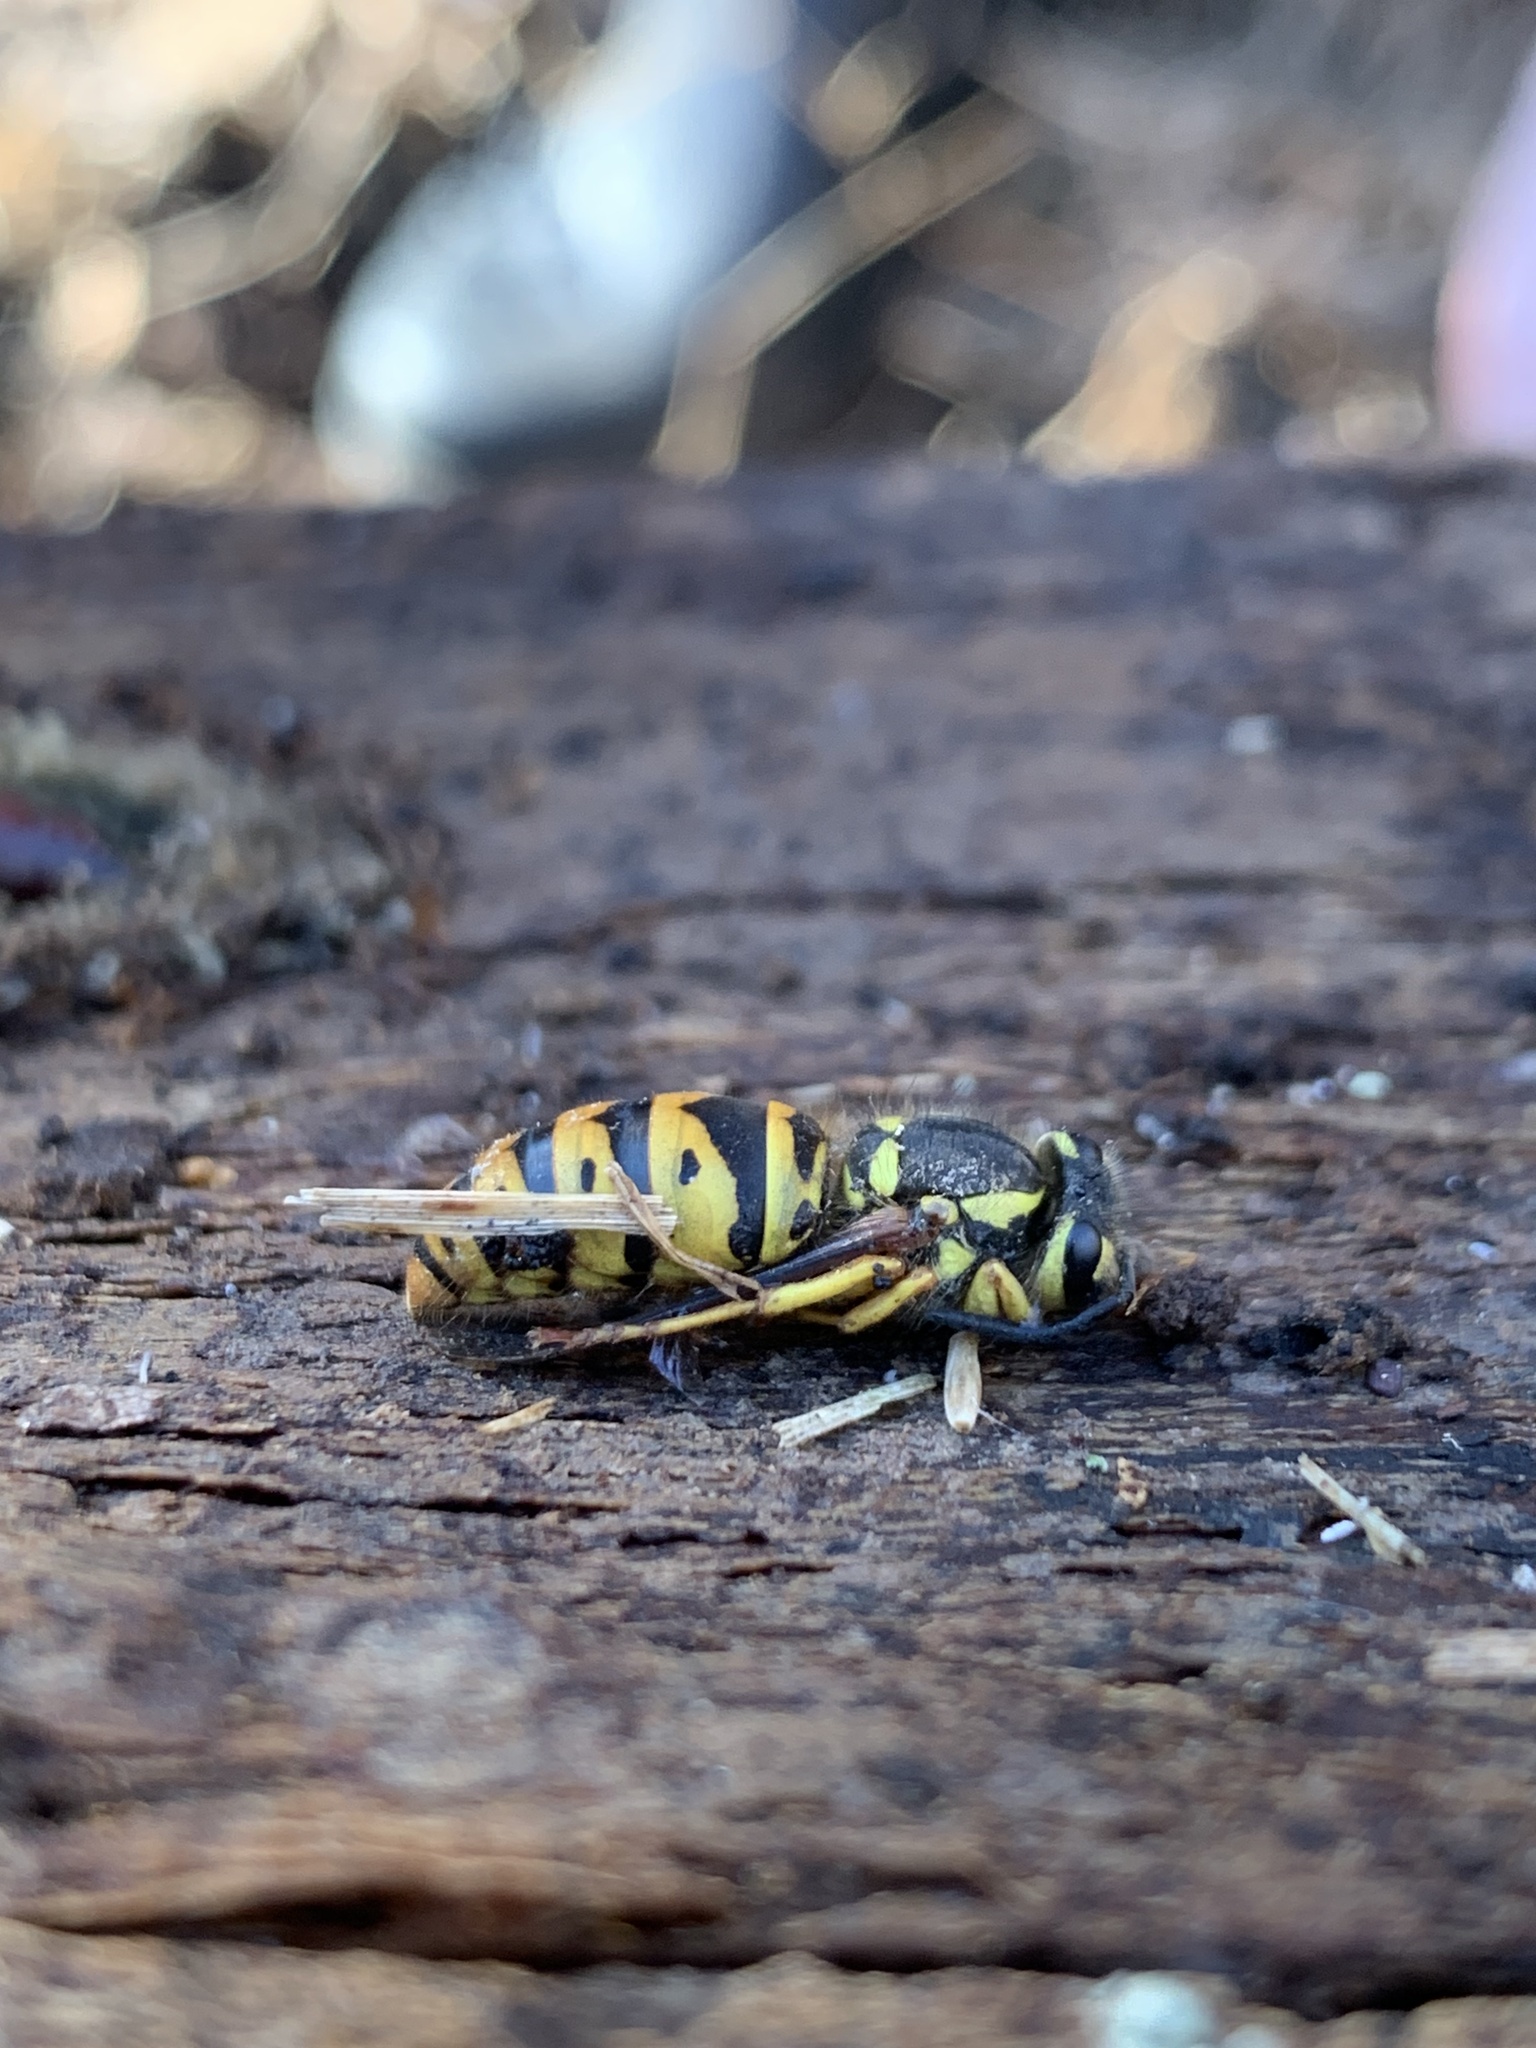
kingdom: Animalia
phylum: Arthropoda
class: Insecta
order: Hymenoptera
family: Vespidae
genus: Vespula
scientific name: Vespula maculifrons
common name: Eastern yellowjacket
